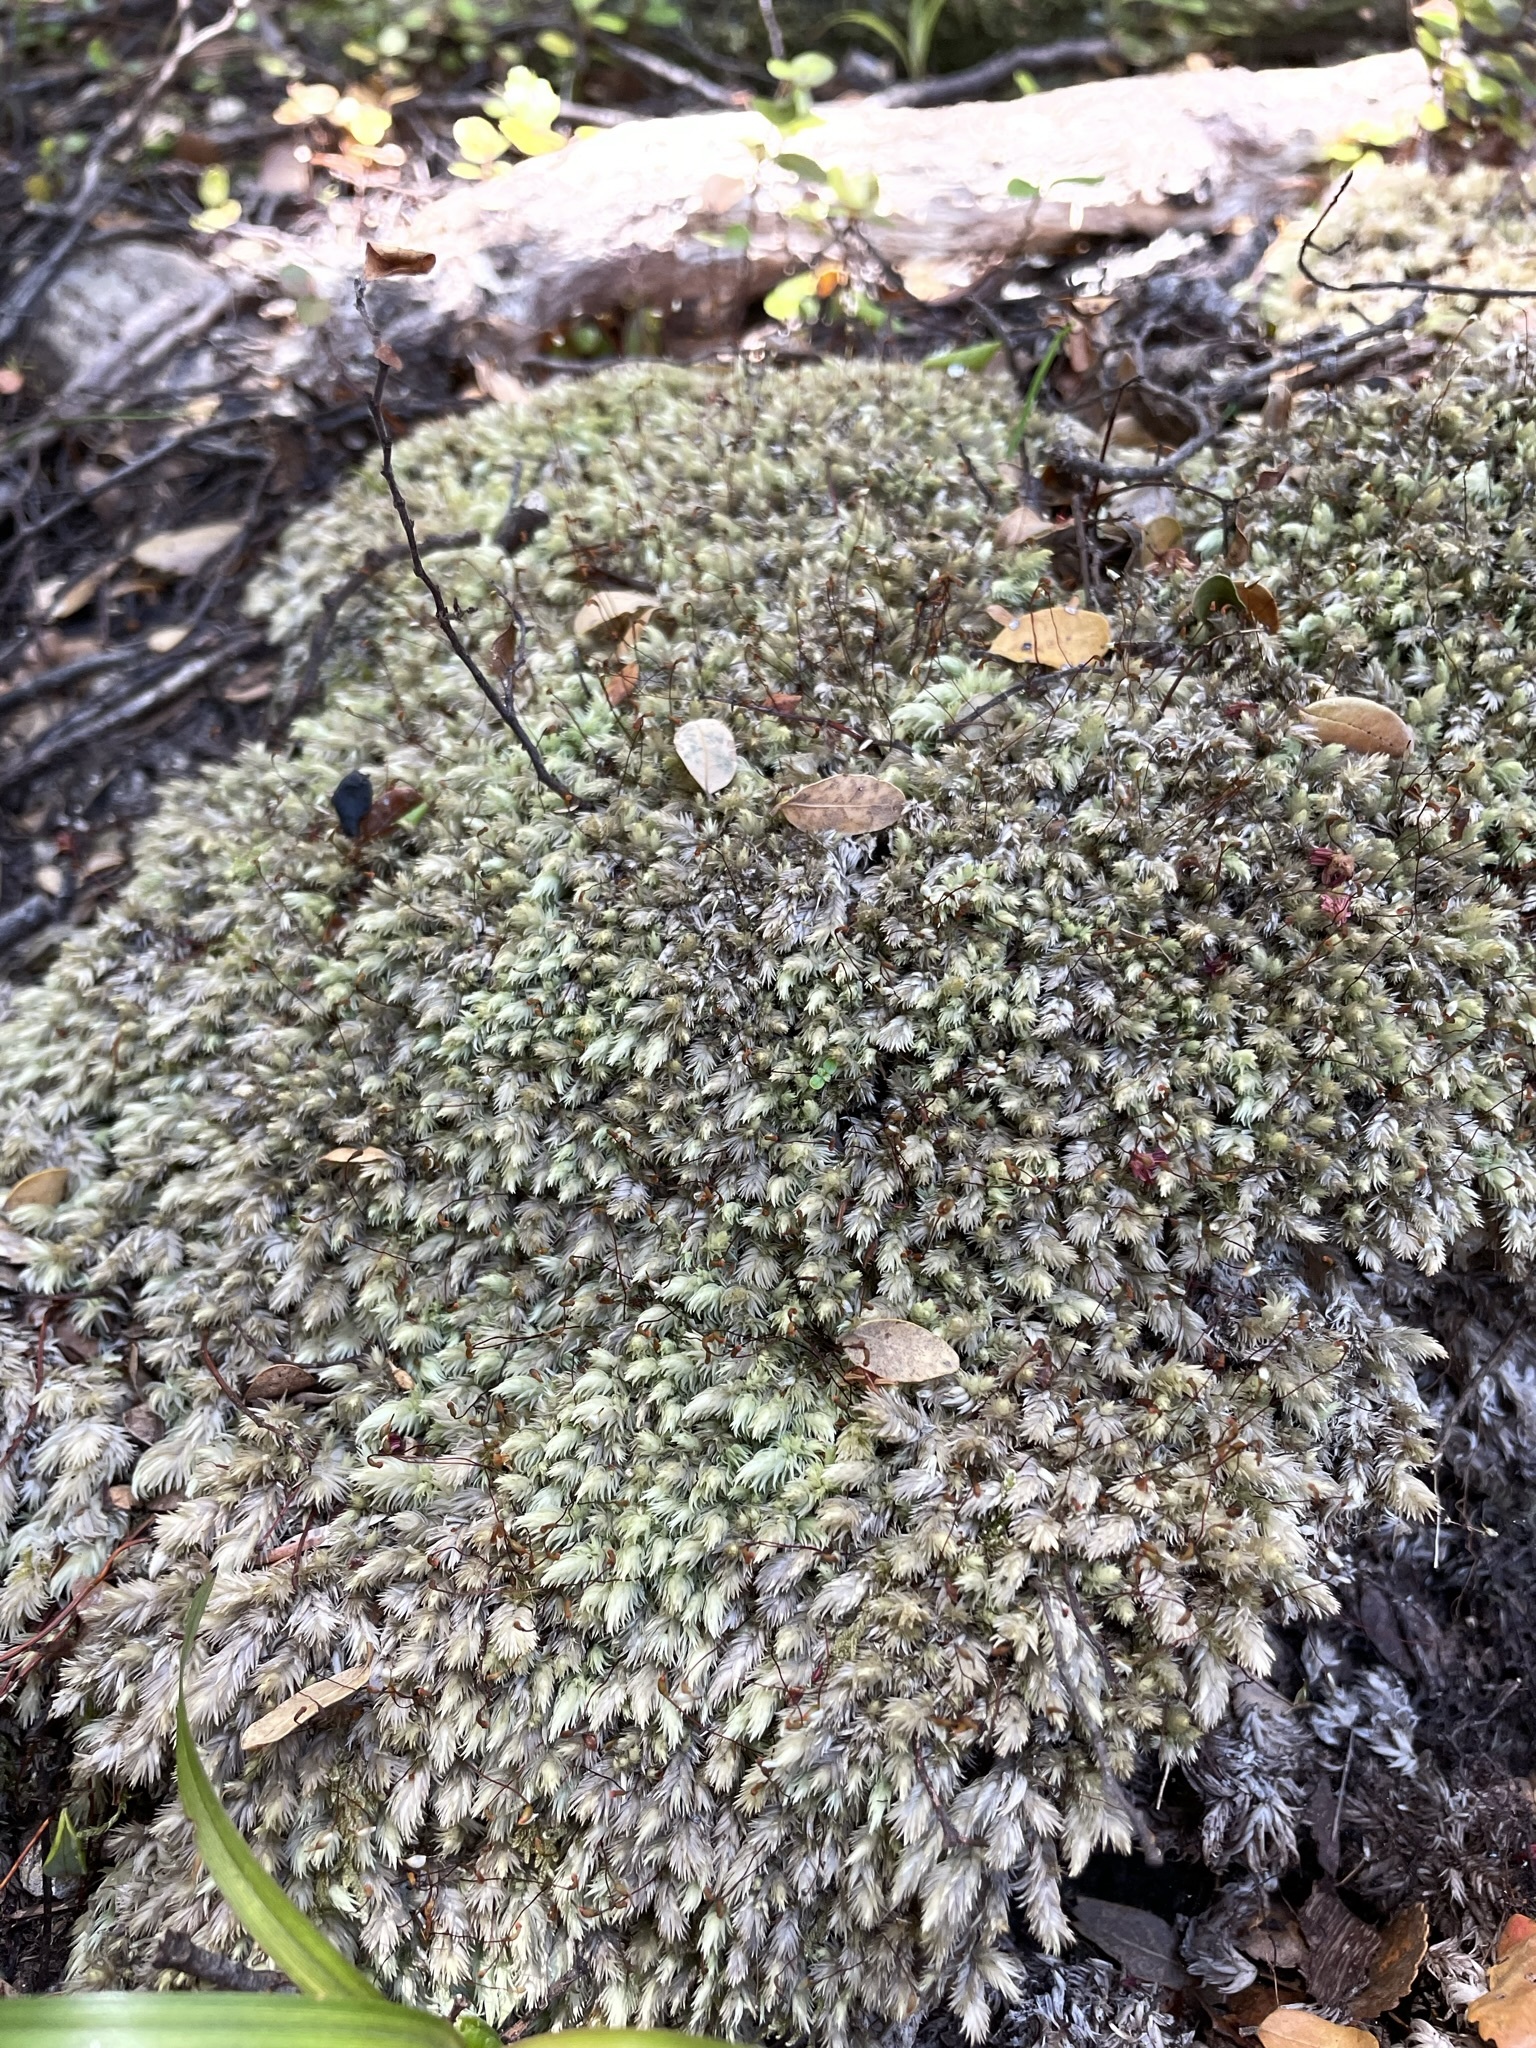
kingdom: Plantae
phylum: Bryophyta
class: Bryopsida
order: Dicranales
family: Leucobryaceae
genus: Leucobryum
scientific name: Leucobryum javense
